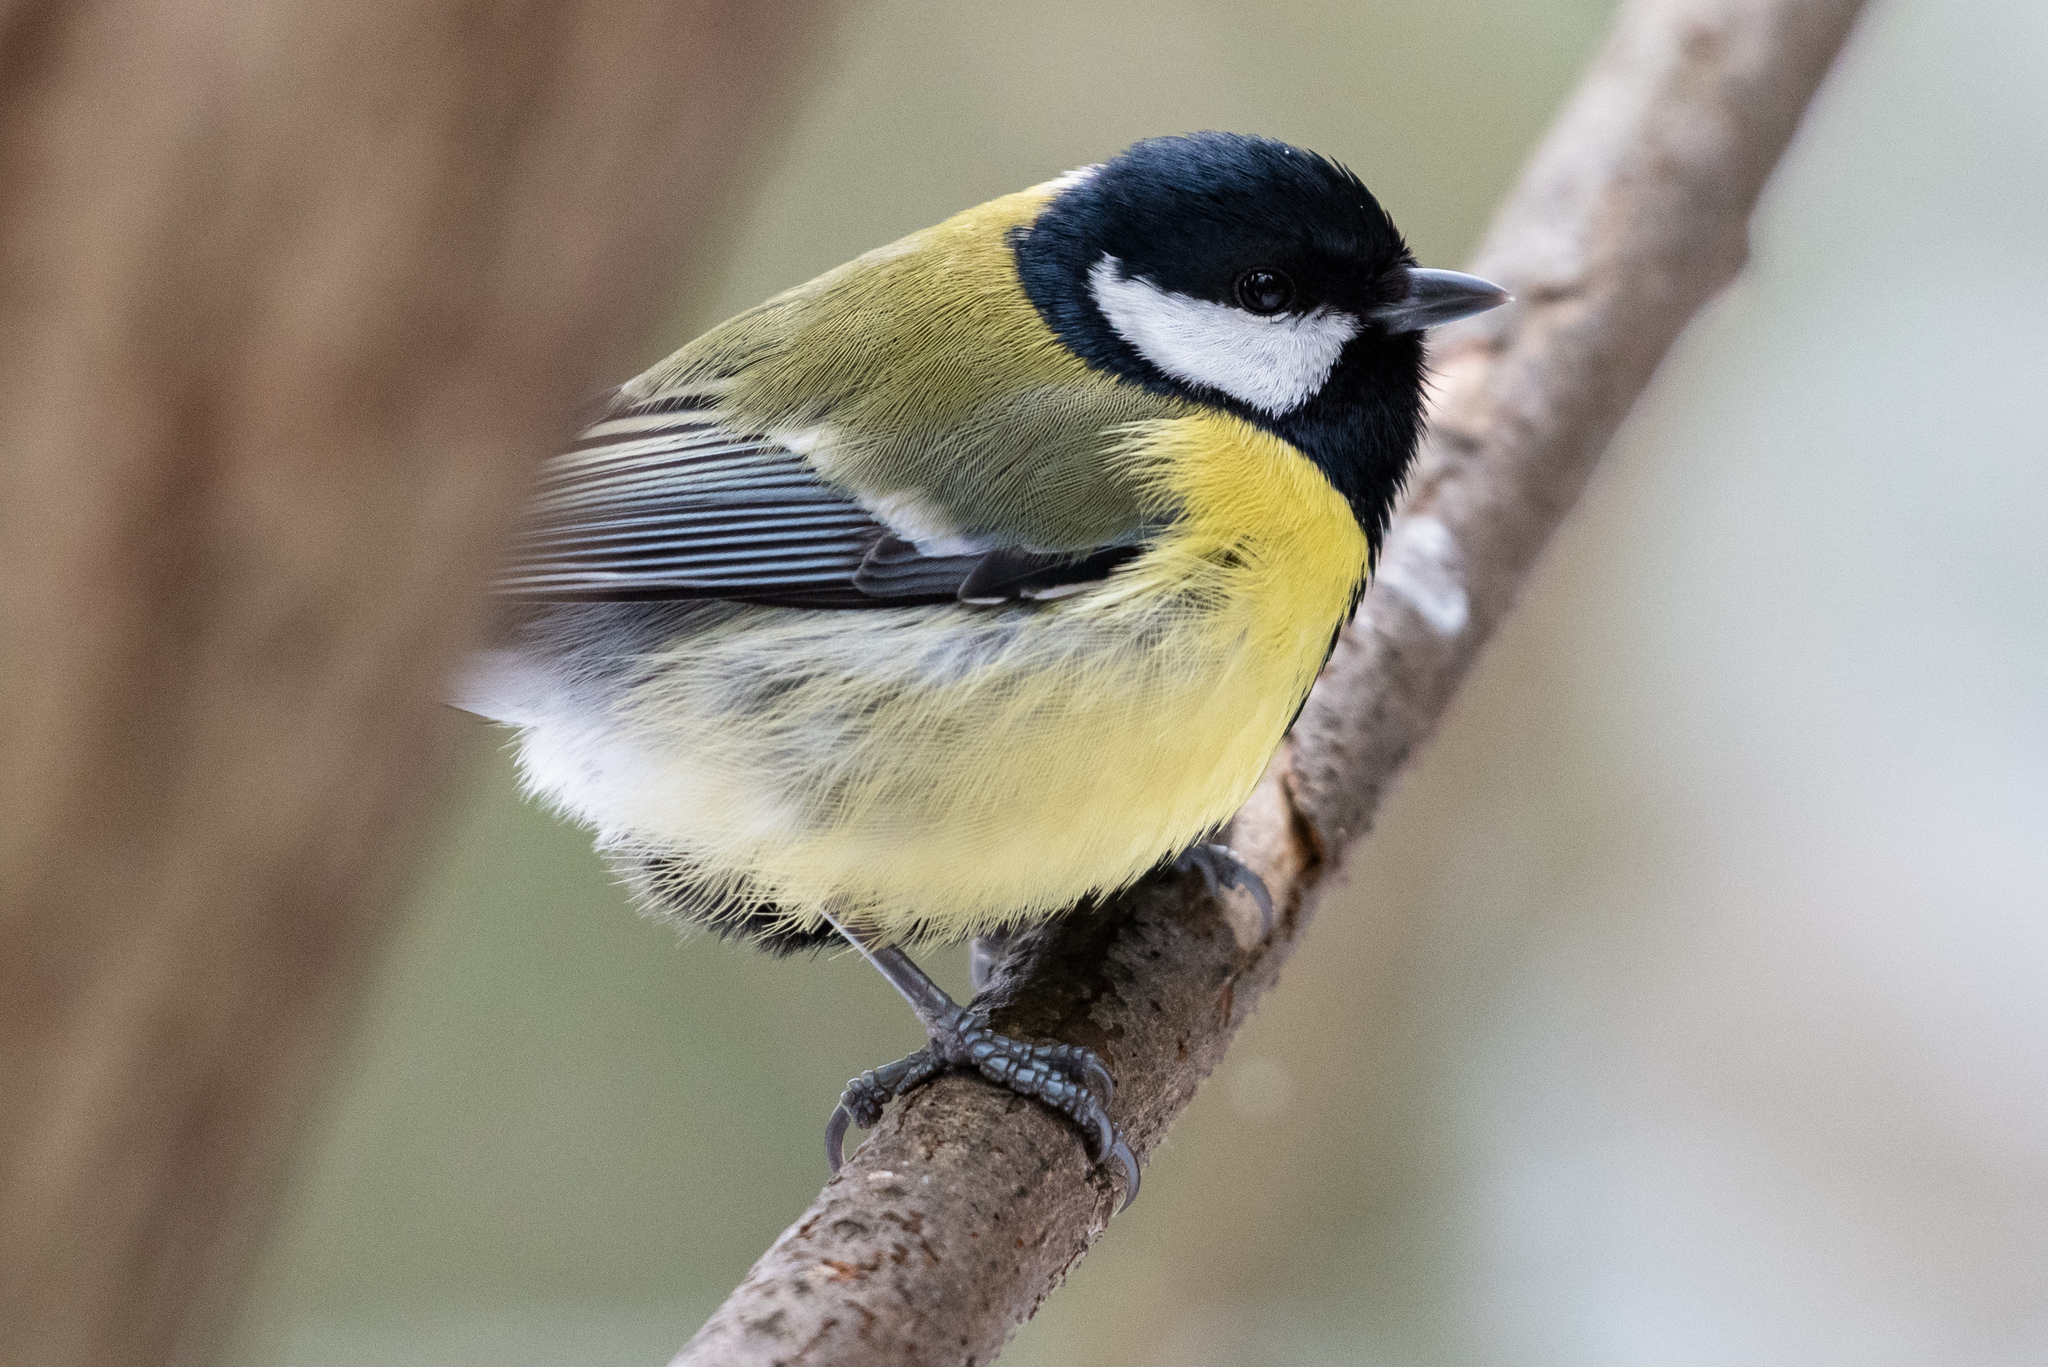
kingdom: Animalia
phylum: Chordata
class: Aves
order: Passeriformes
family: Paridae
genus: Parus
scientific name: Parus major
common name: Great tit
